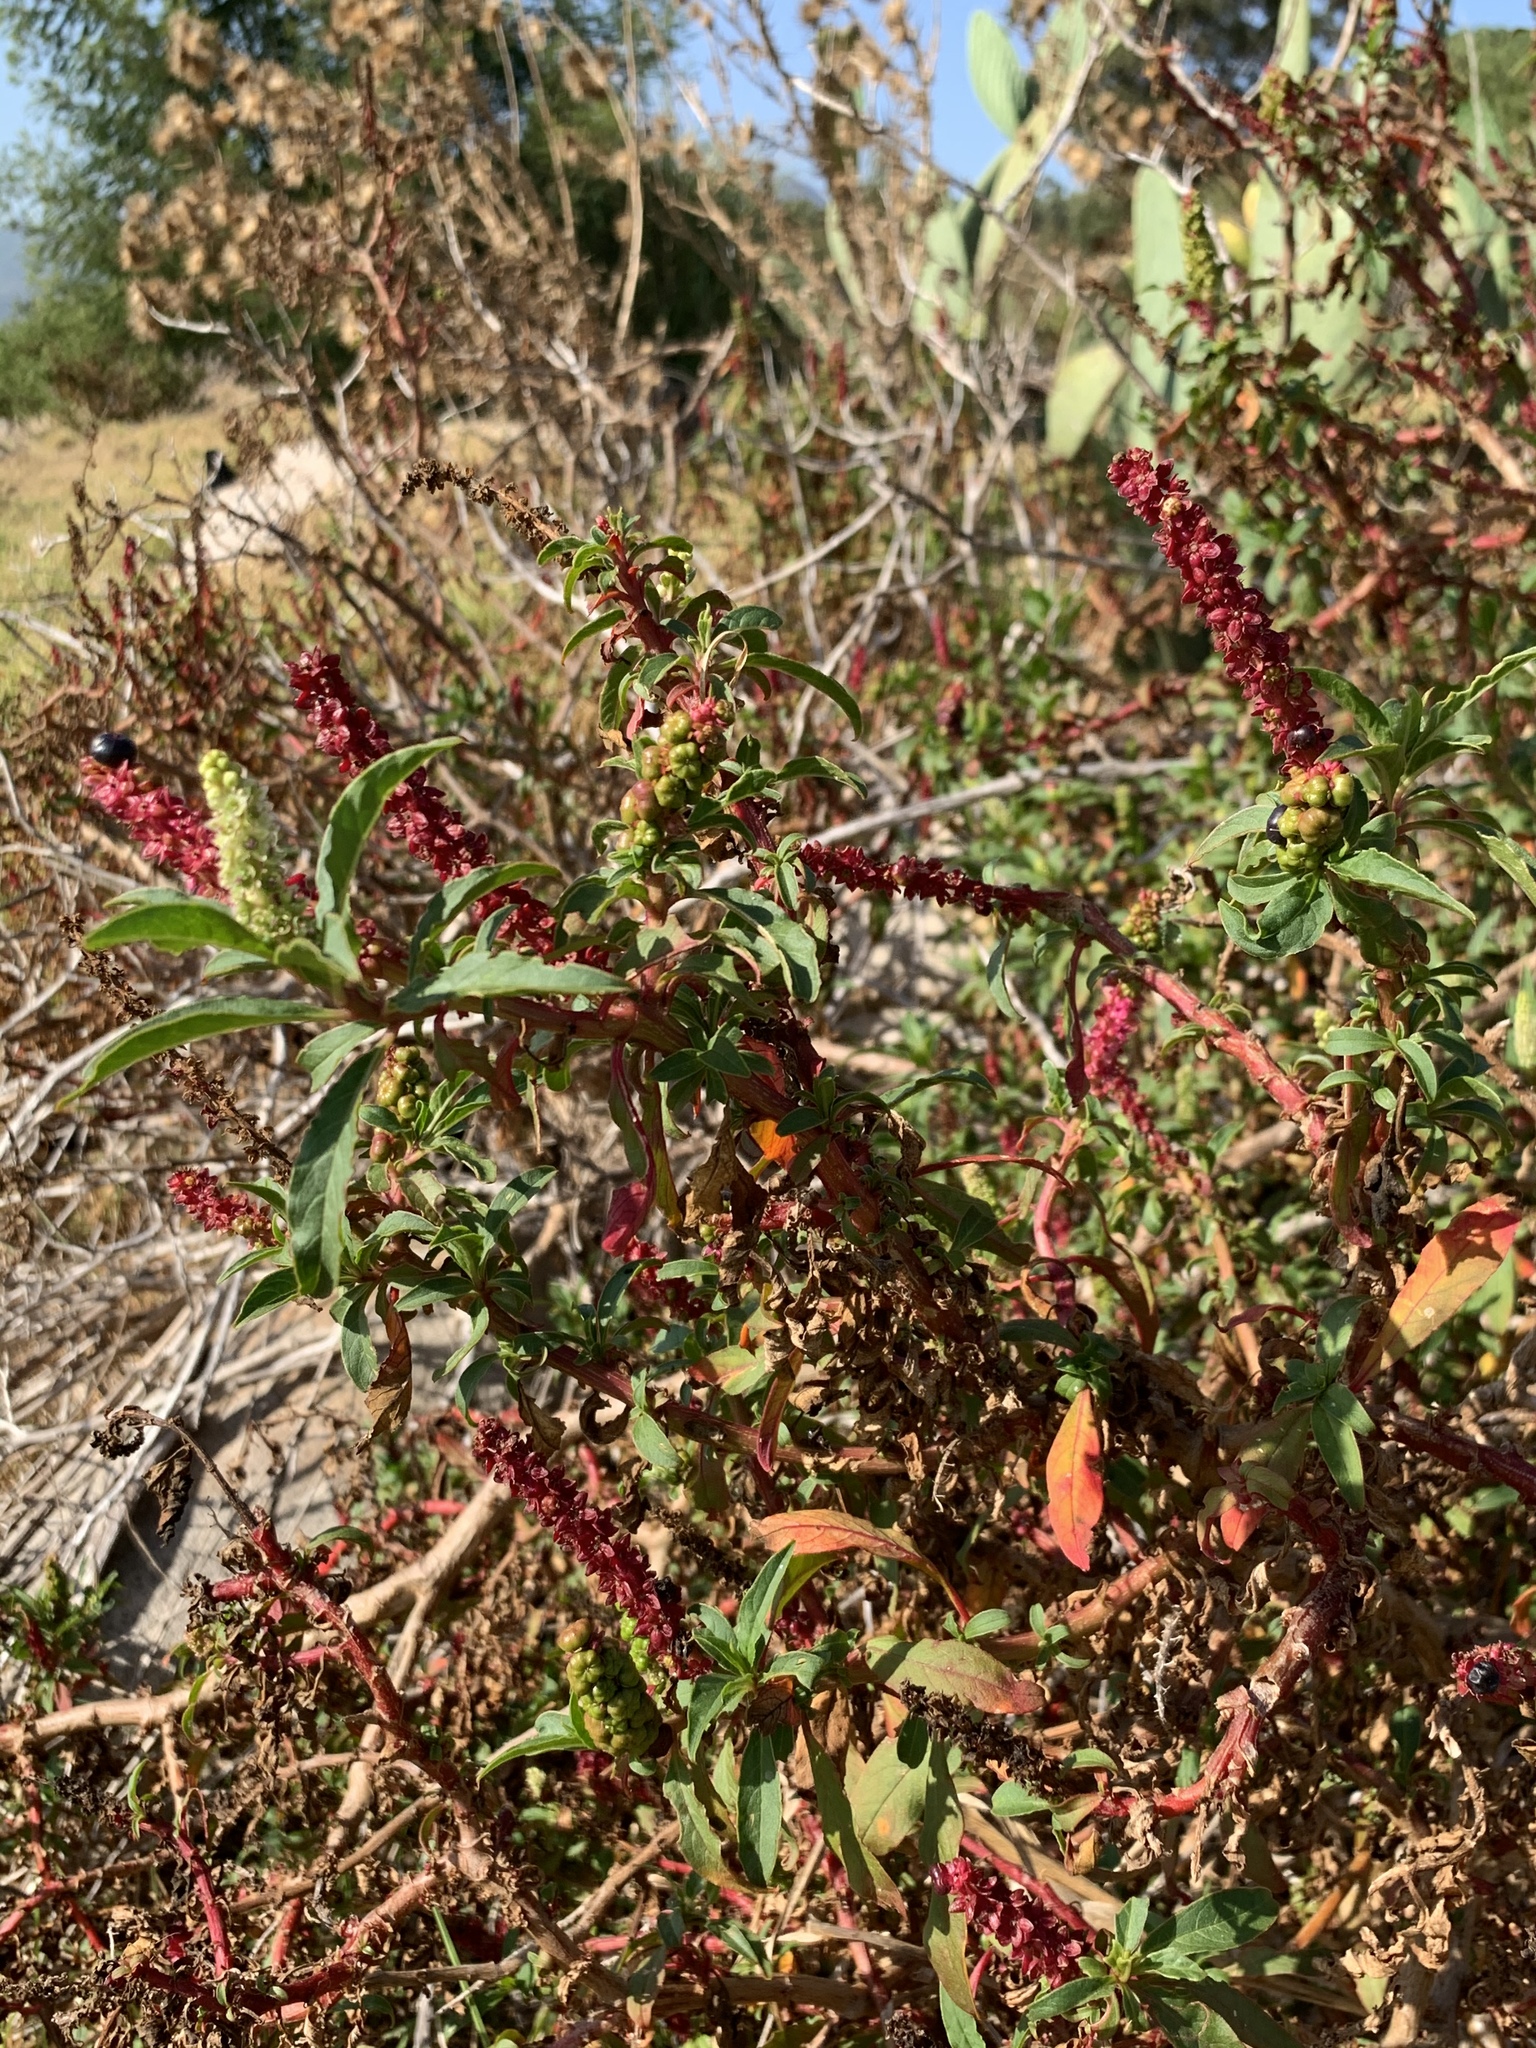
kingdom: Plantae
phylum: Tracheophyta
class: Magnoliopsida
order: Caryophyllales
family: Phytolaccaceae
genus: Phytolacca
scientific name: Phytolacca icosandra
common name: Button pokeweed
